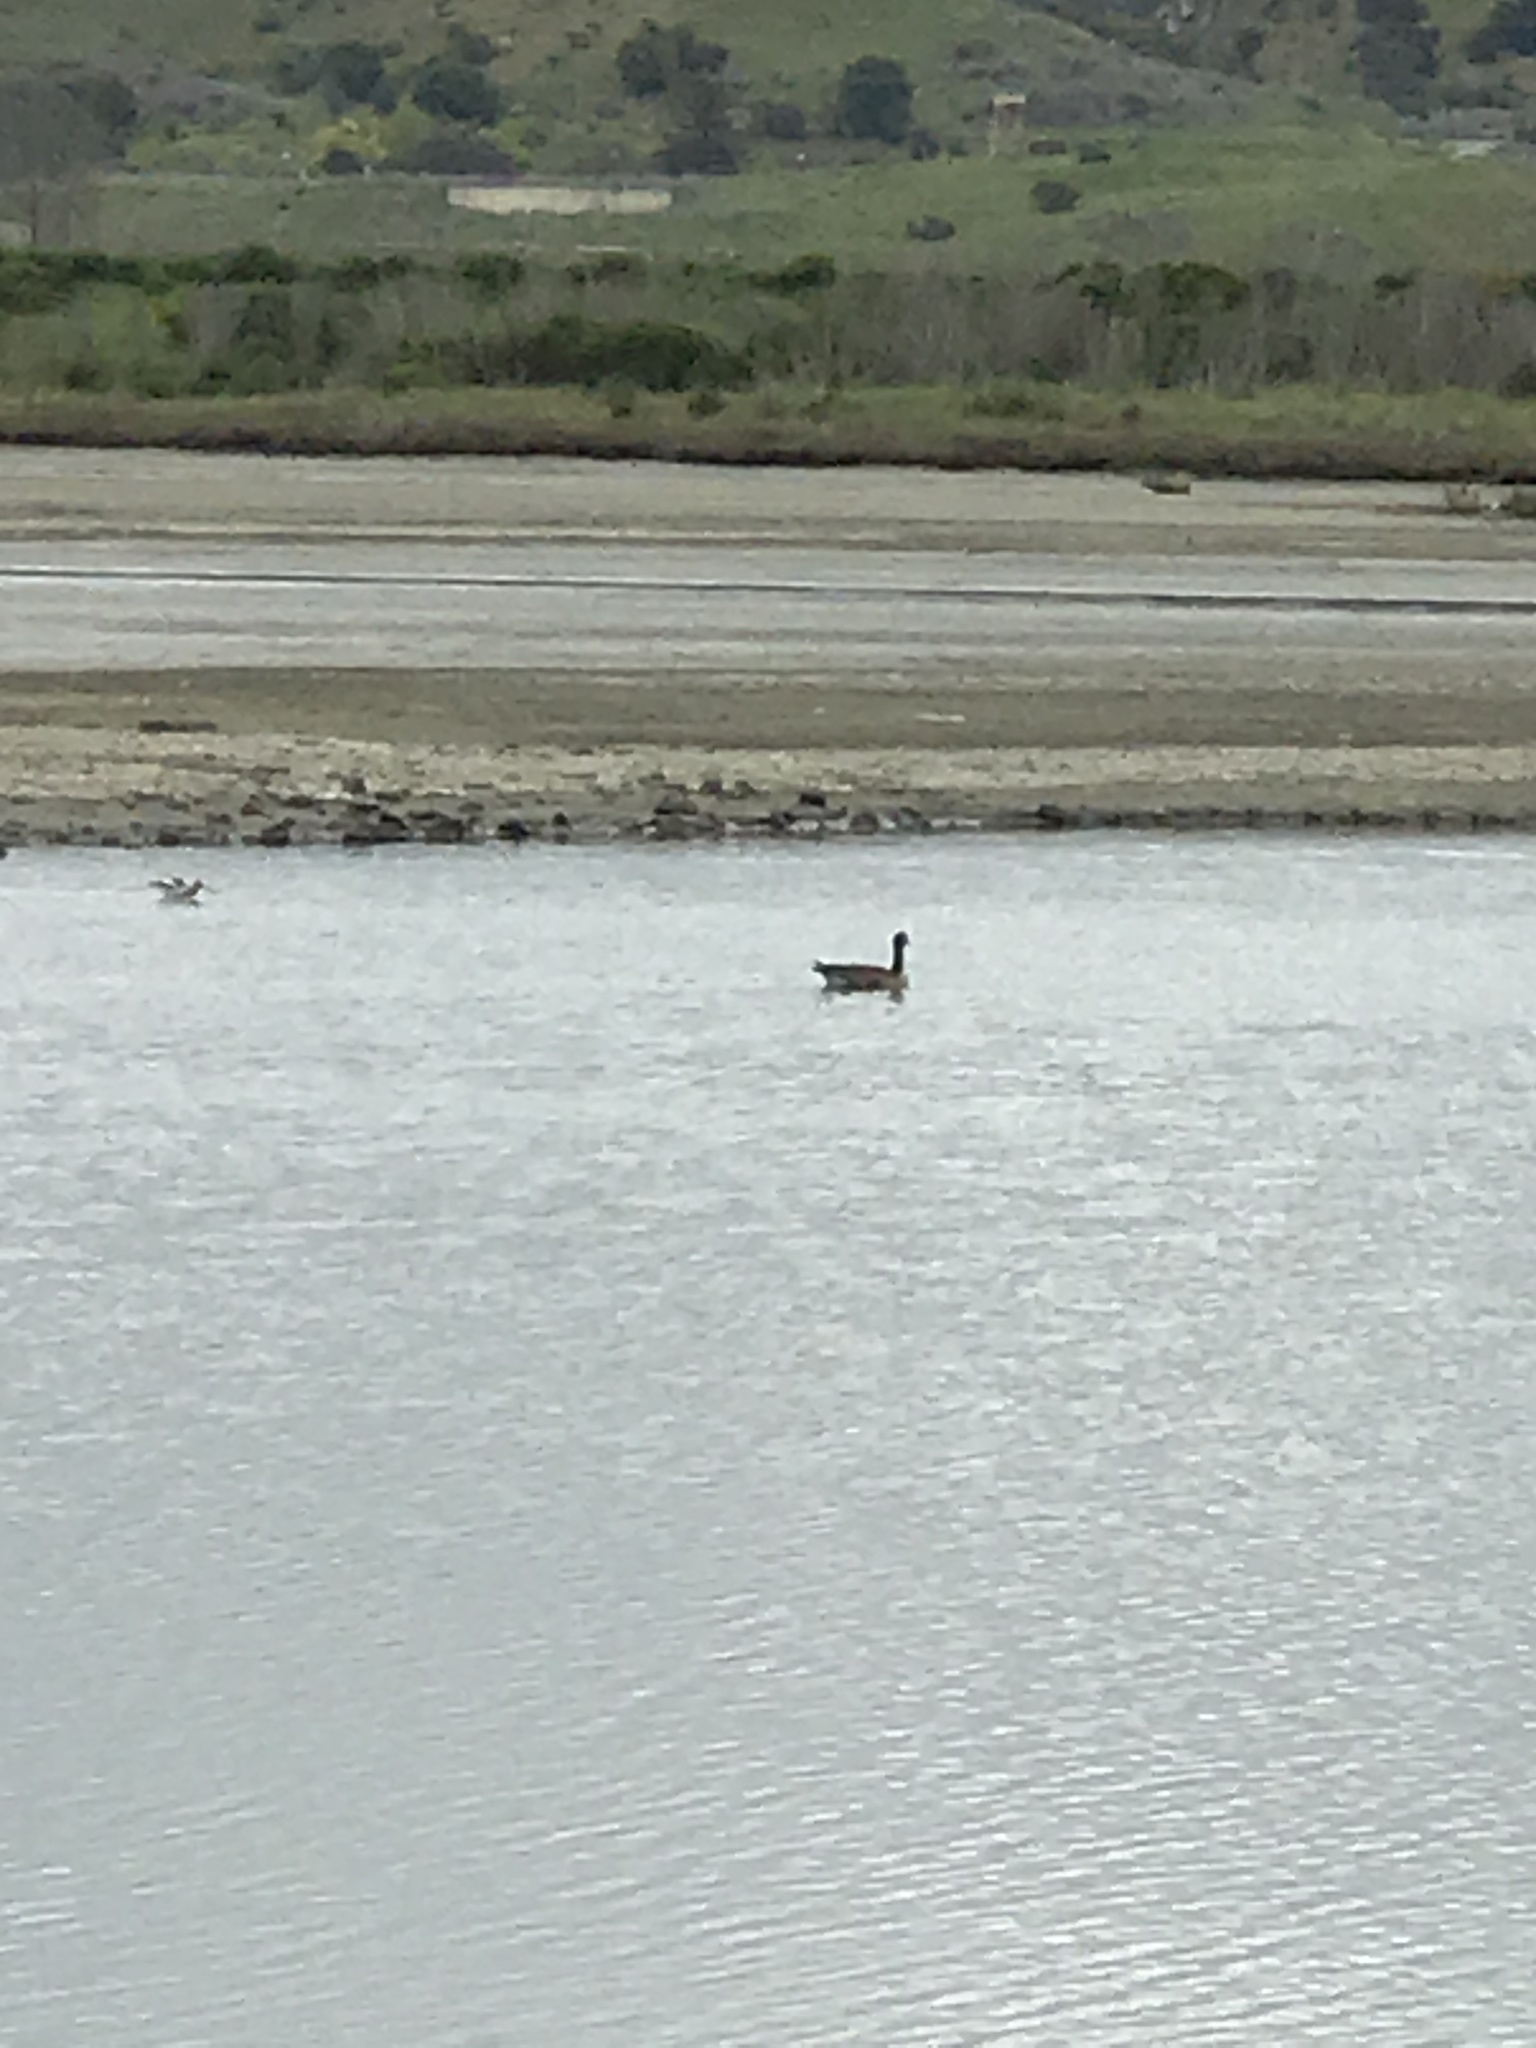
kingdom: Animalia
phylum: Chordata
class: Aves
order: Anseriformes
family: Anatidae
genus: Branta
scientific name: Branta canadensis
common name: Canada goose
